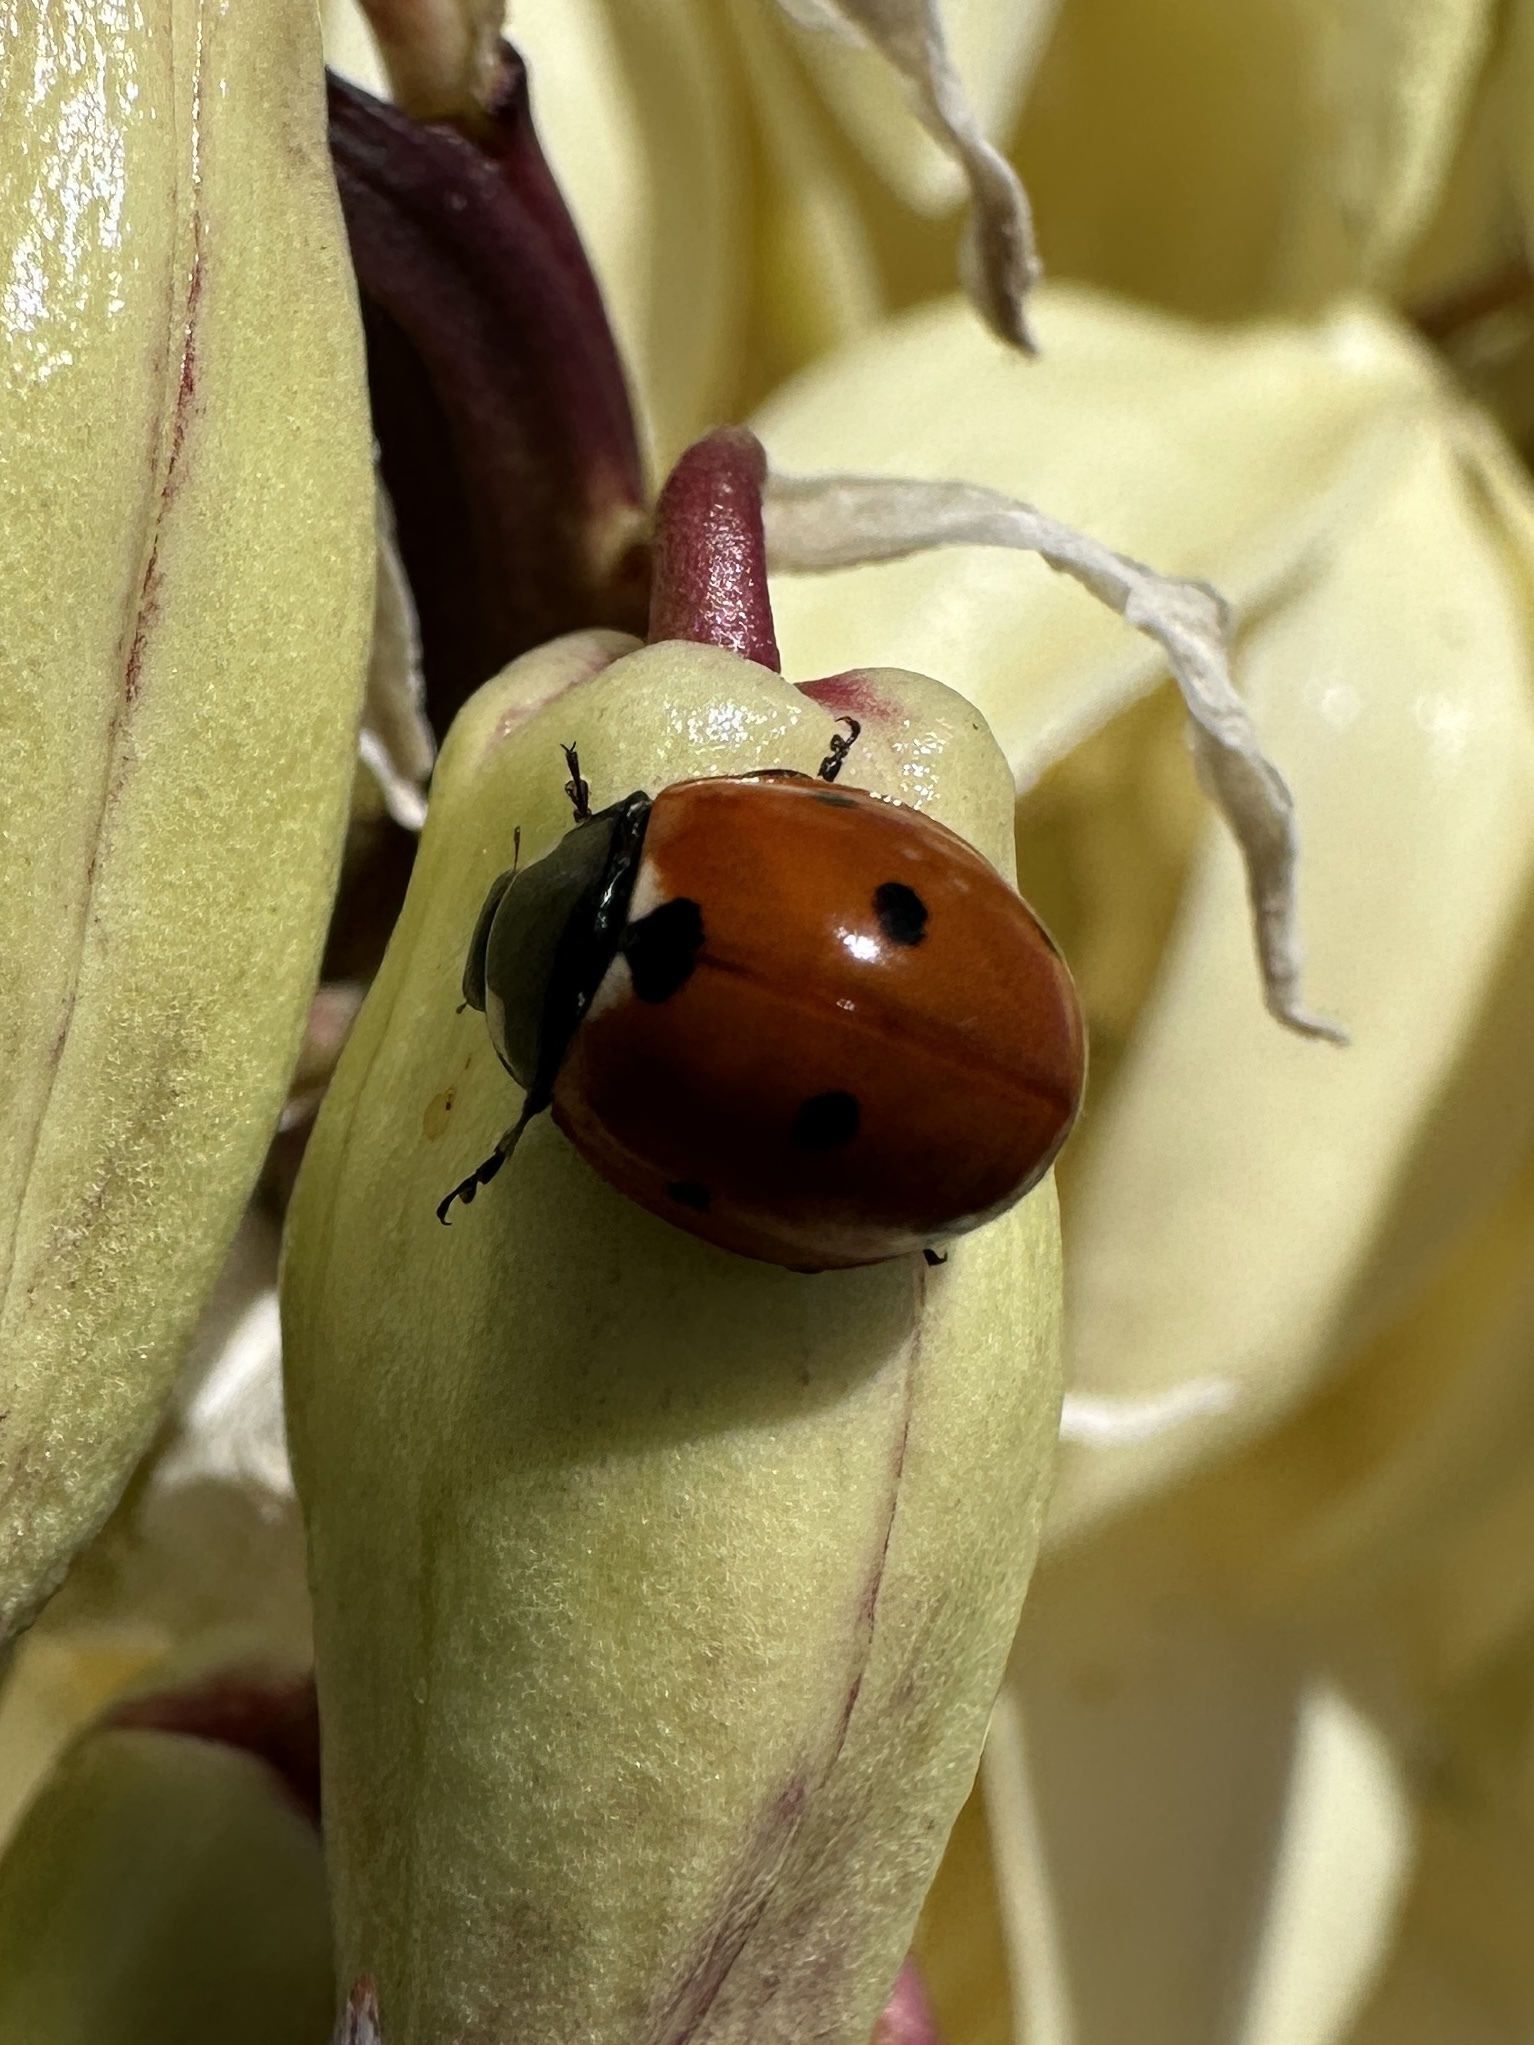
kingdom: Animalia
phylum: Arthropoda
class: Insecta
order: Coleoptera
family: Coccinellidae
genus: Coccinella
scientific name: Coccinella septempunctata
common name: Sevenspotted lady beetle
